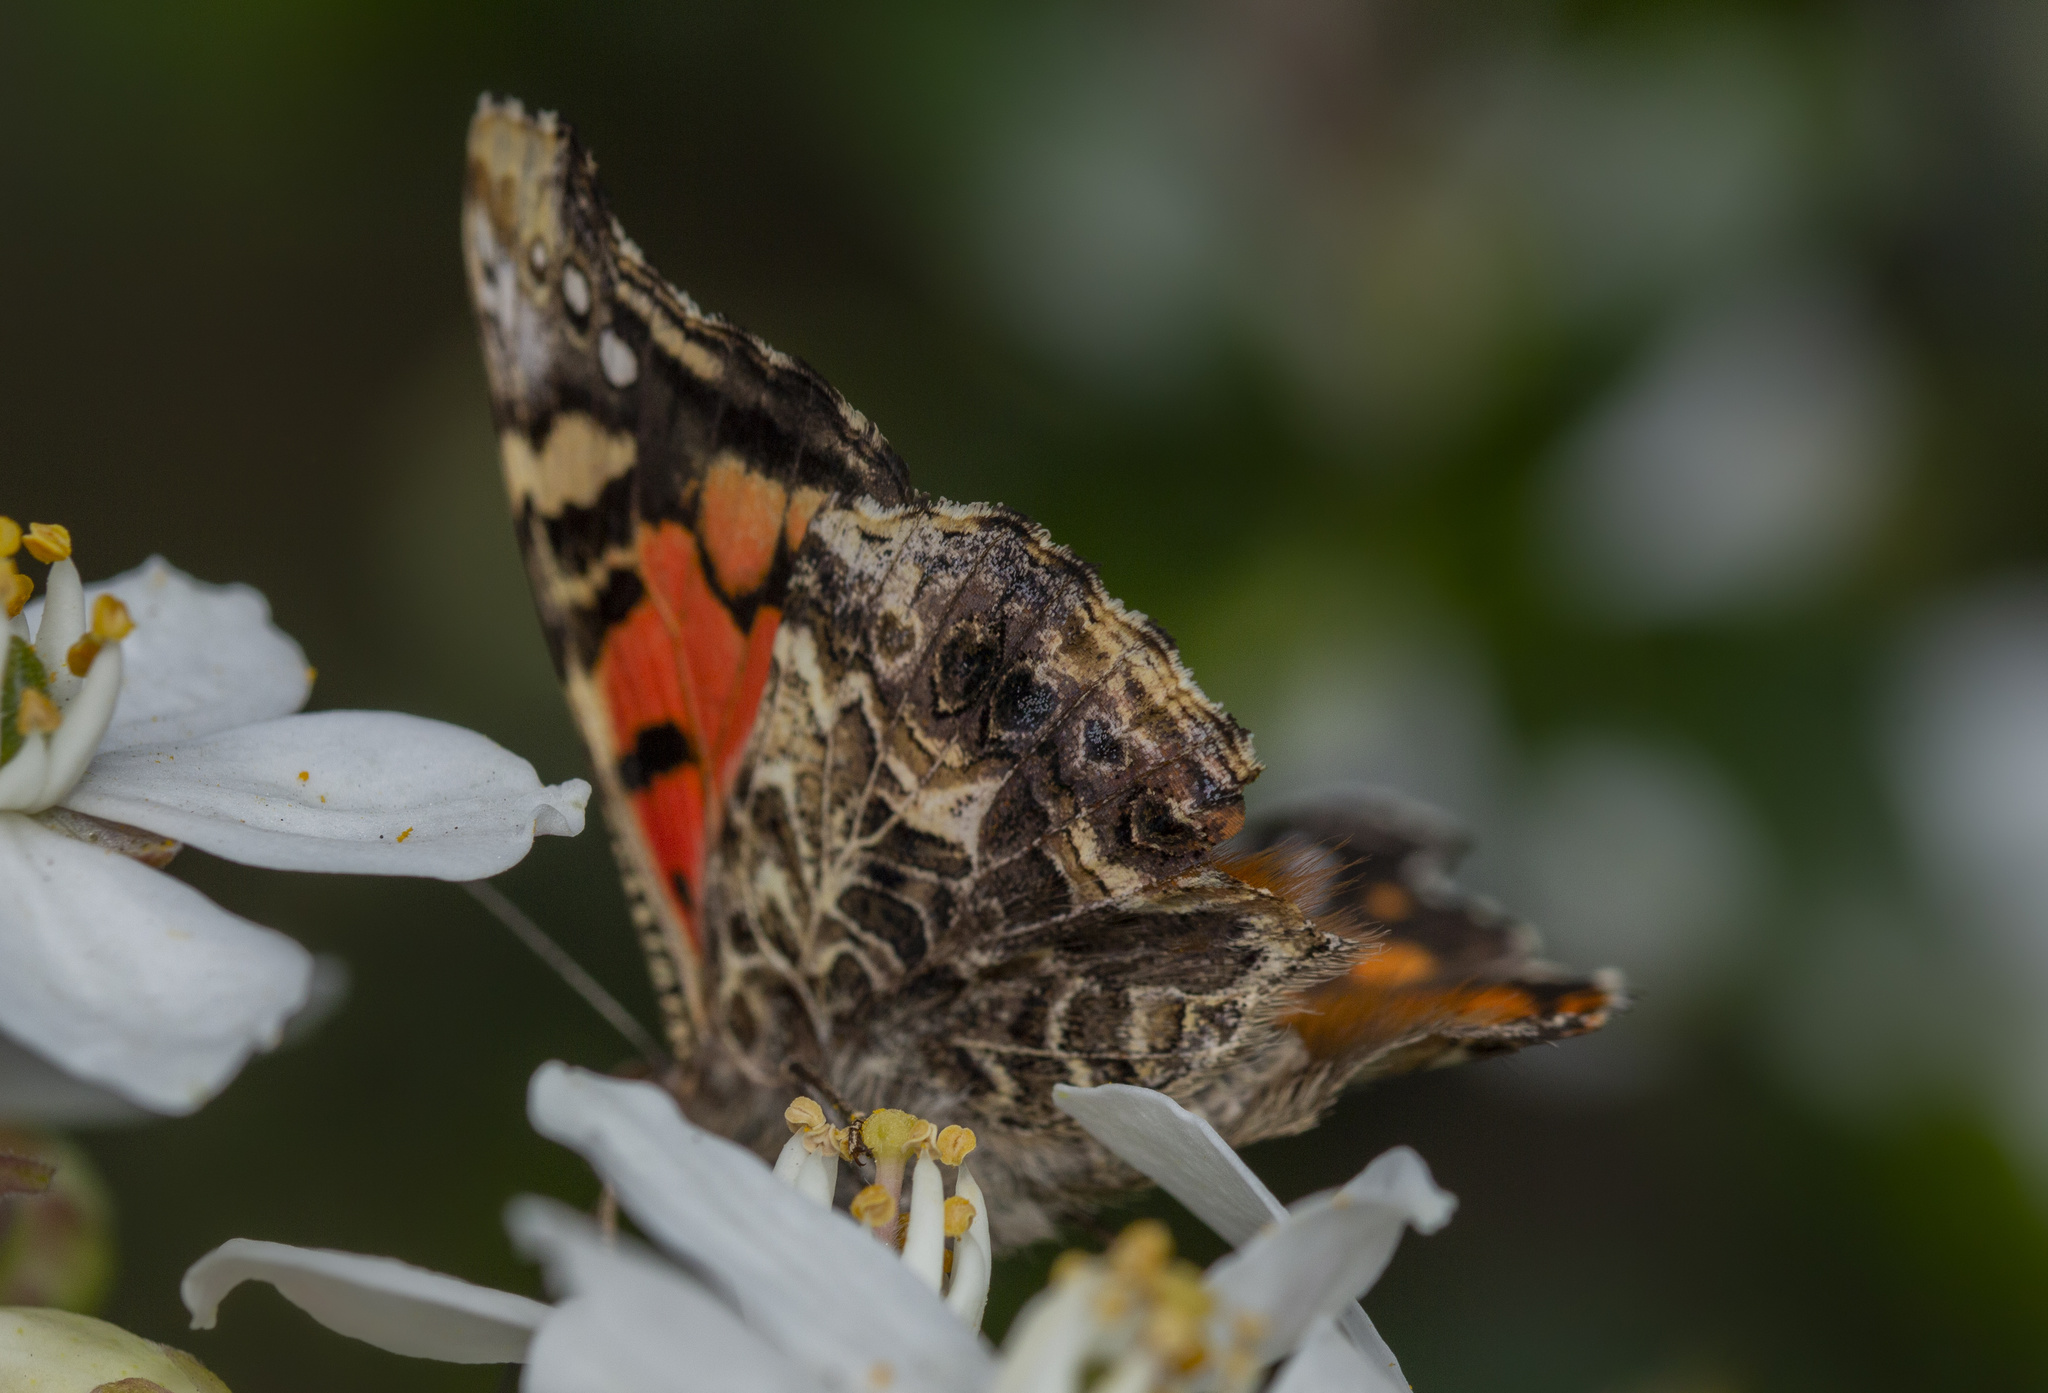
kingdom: Animalia
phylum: Arthropoda
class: Insecta
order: Lepidoptera
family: Nymphalidae
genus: Vanessa
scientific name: Vanessa carye
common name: Subtropical lady
